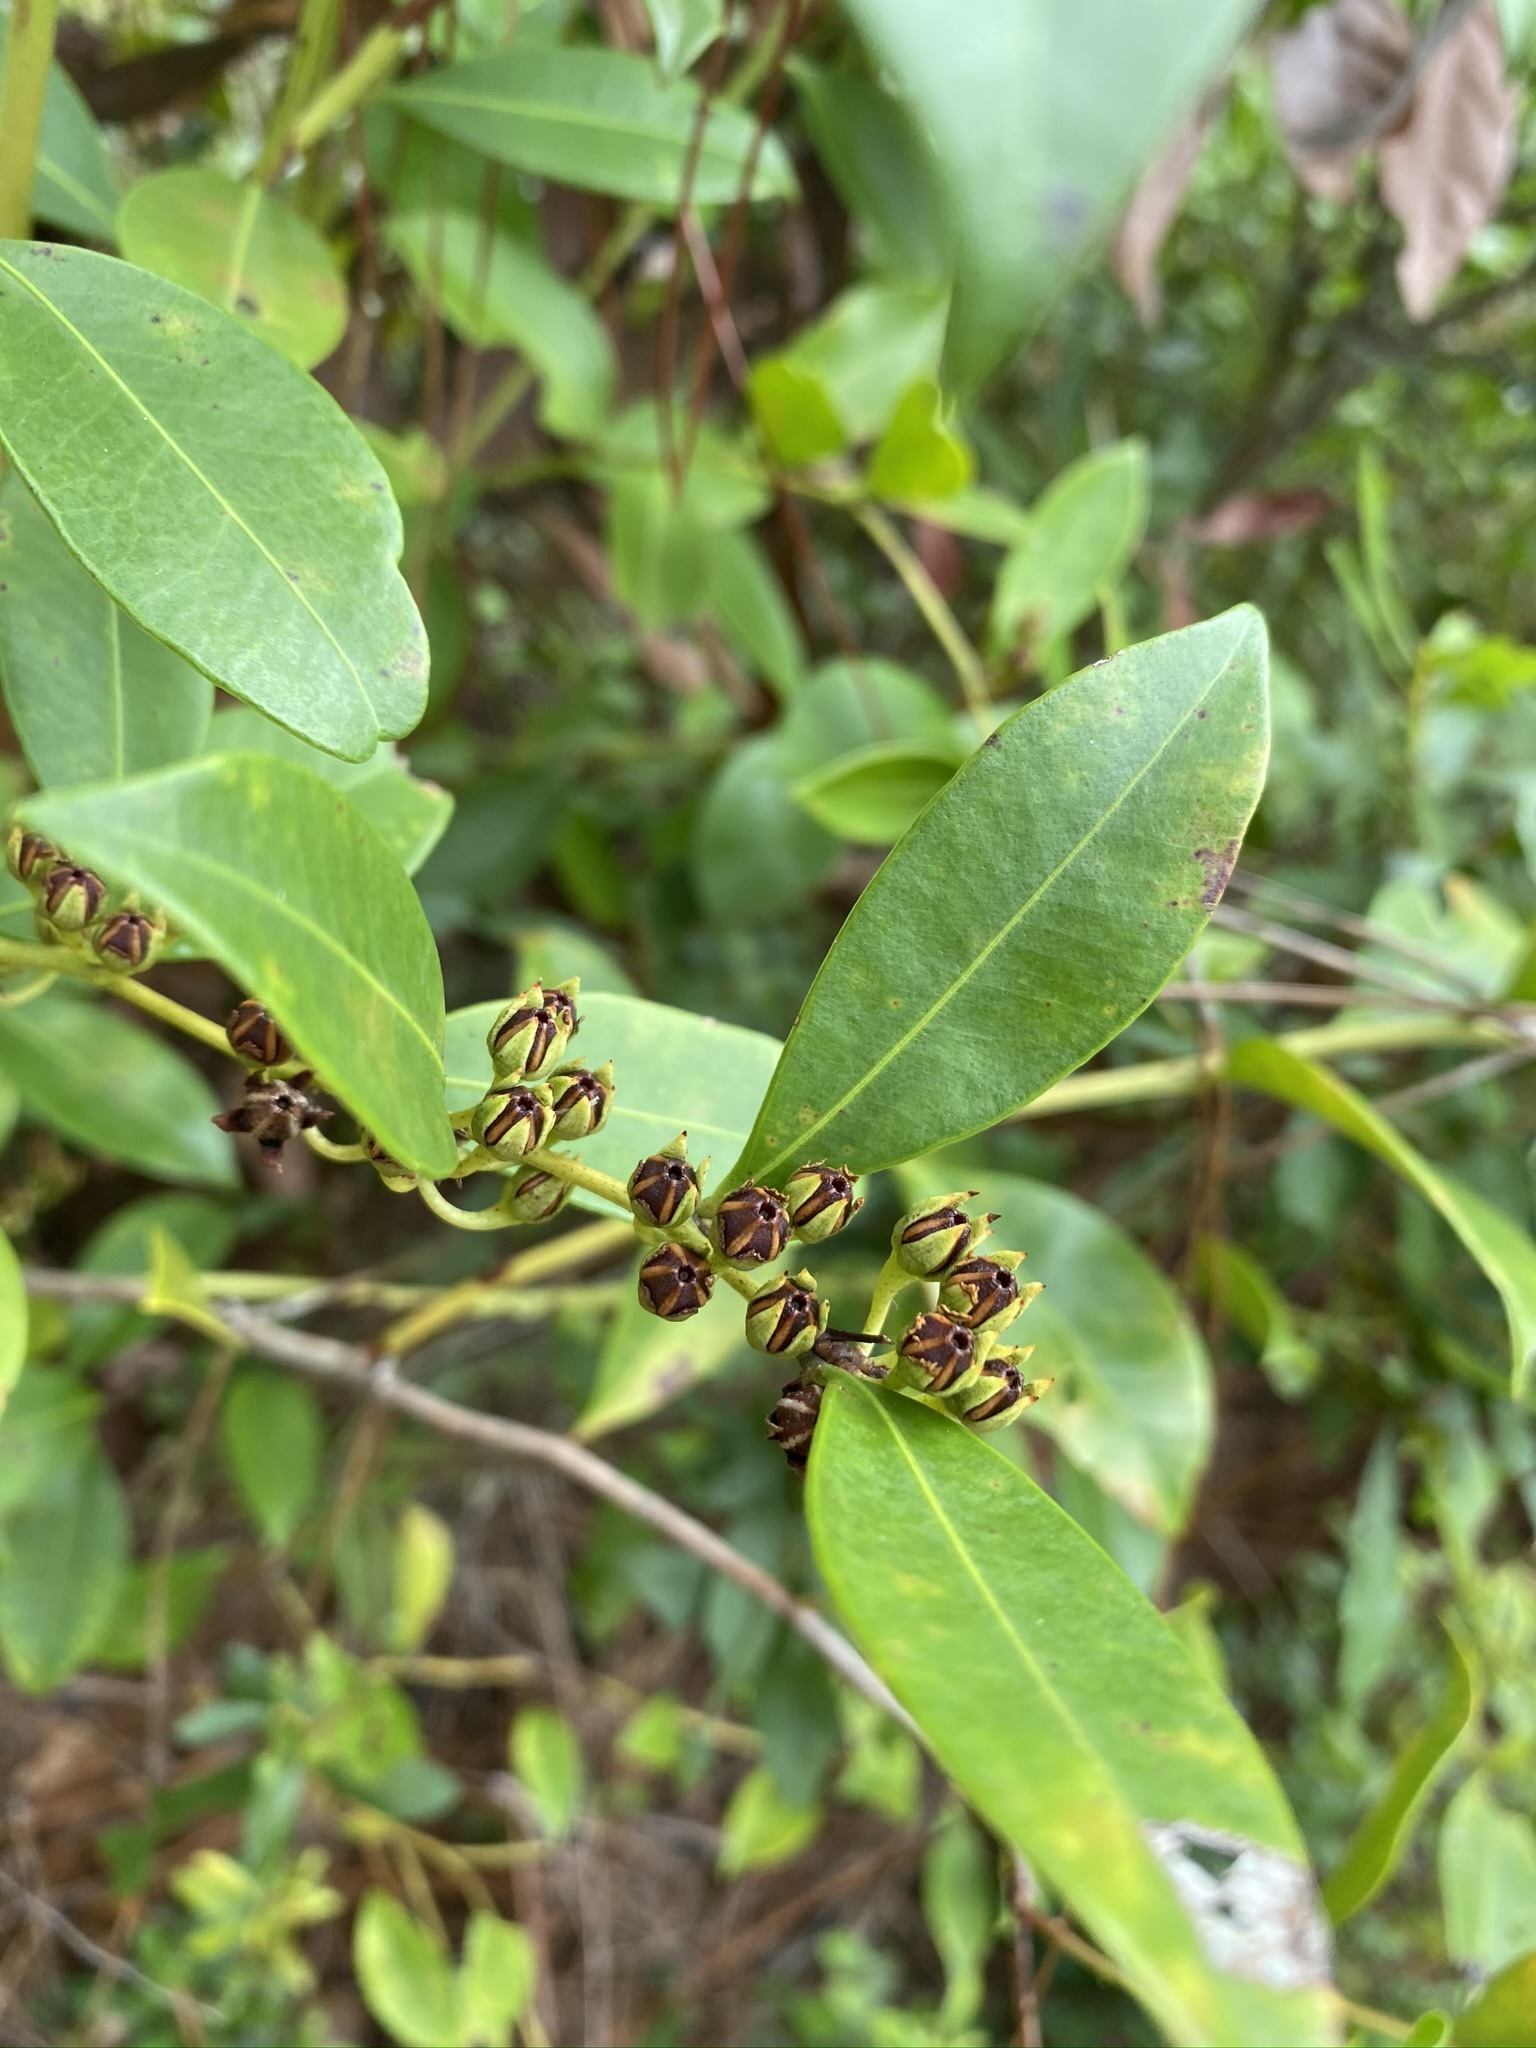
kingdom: Plantae
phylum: Tracheophyta
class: Magnoliopsida
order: Ericales
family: Ericaceae
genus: Lyonia
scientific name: Lyonia lucida
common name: Fetterbush
